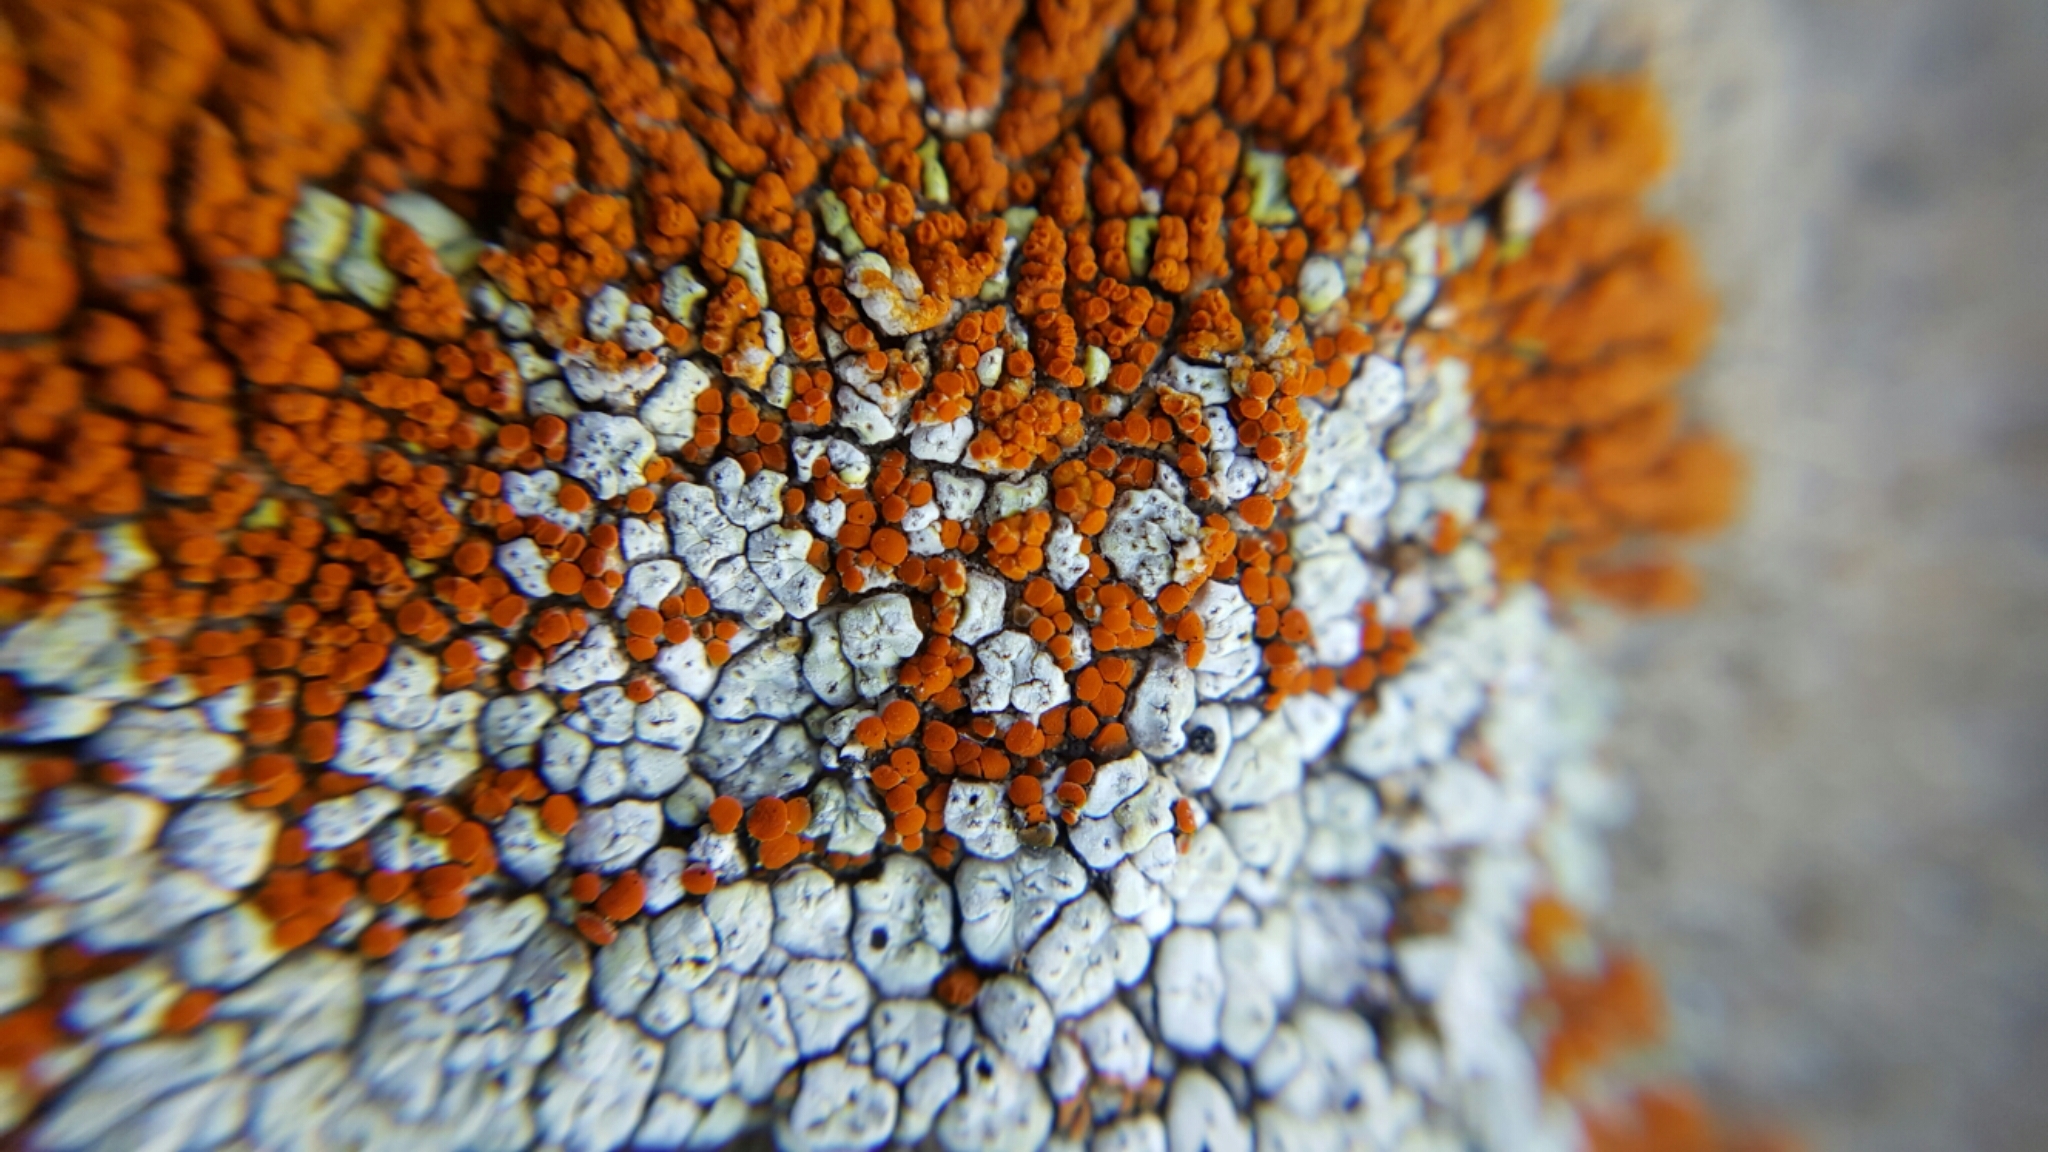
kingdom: Fungi
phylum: Ascomycota
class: Lecanoromycetes
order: Acarosporales
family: Acarosporaceae
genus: Acarospora
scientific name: Acarospora stapfiana
